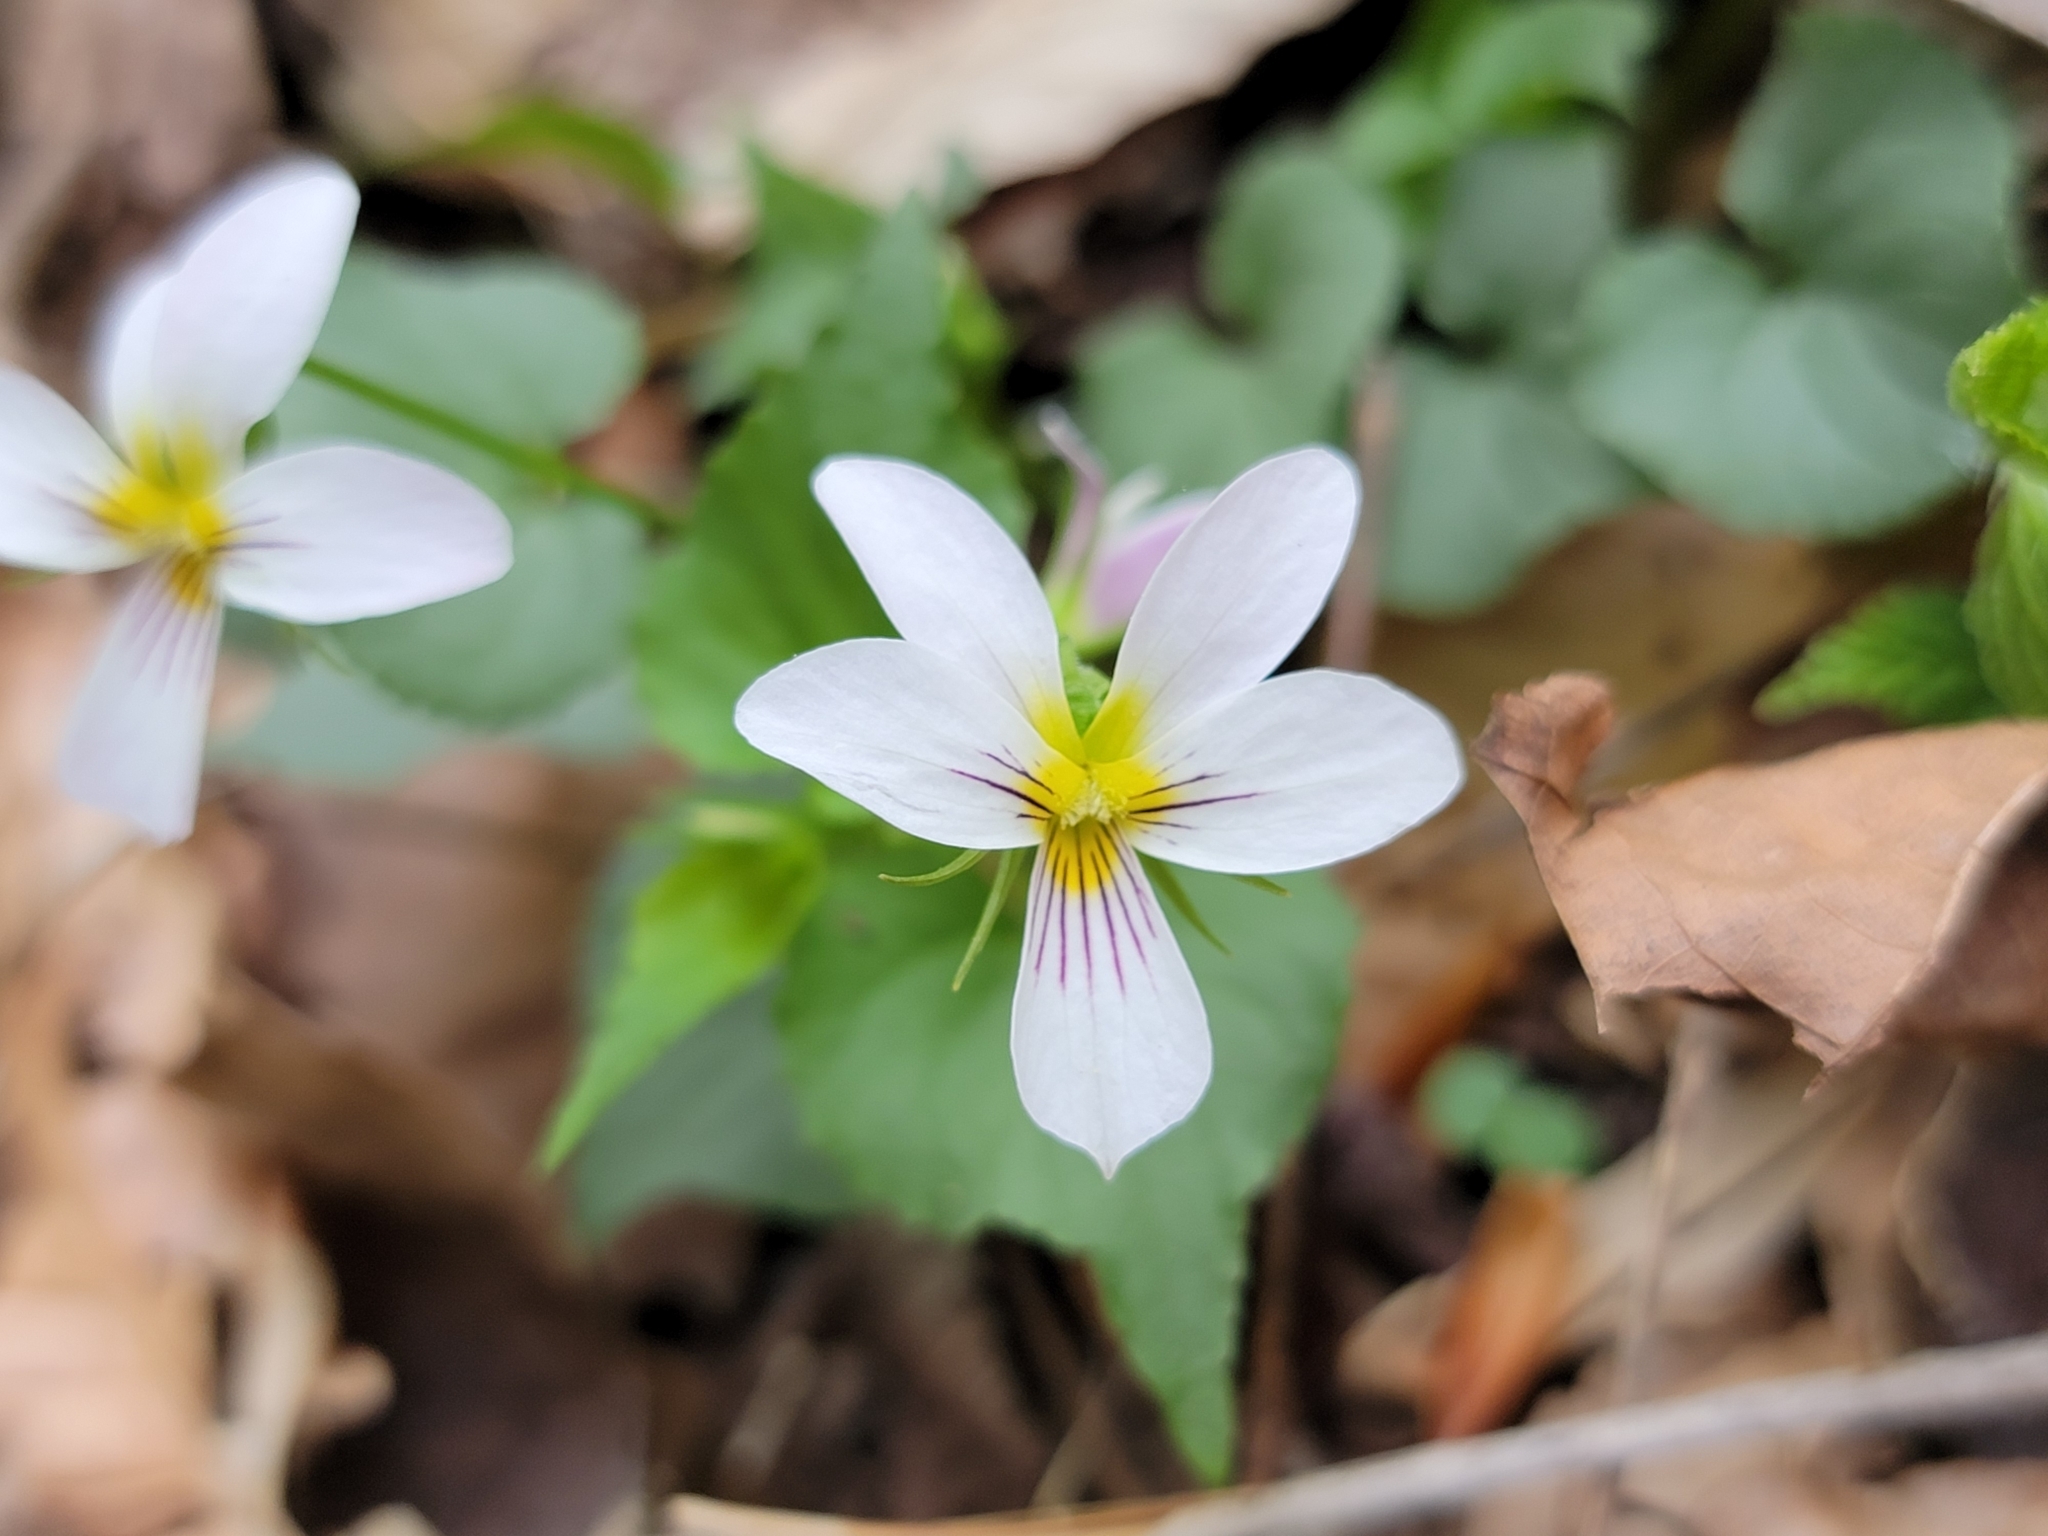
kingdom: Plantae
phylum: Tracheophyta
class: Magnoliopsida
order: Malpighiales
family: Violaceae
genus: Viola
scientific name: Viola canadensis
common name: Canada violet
